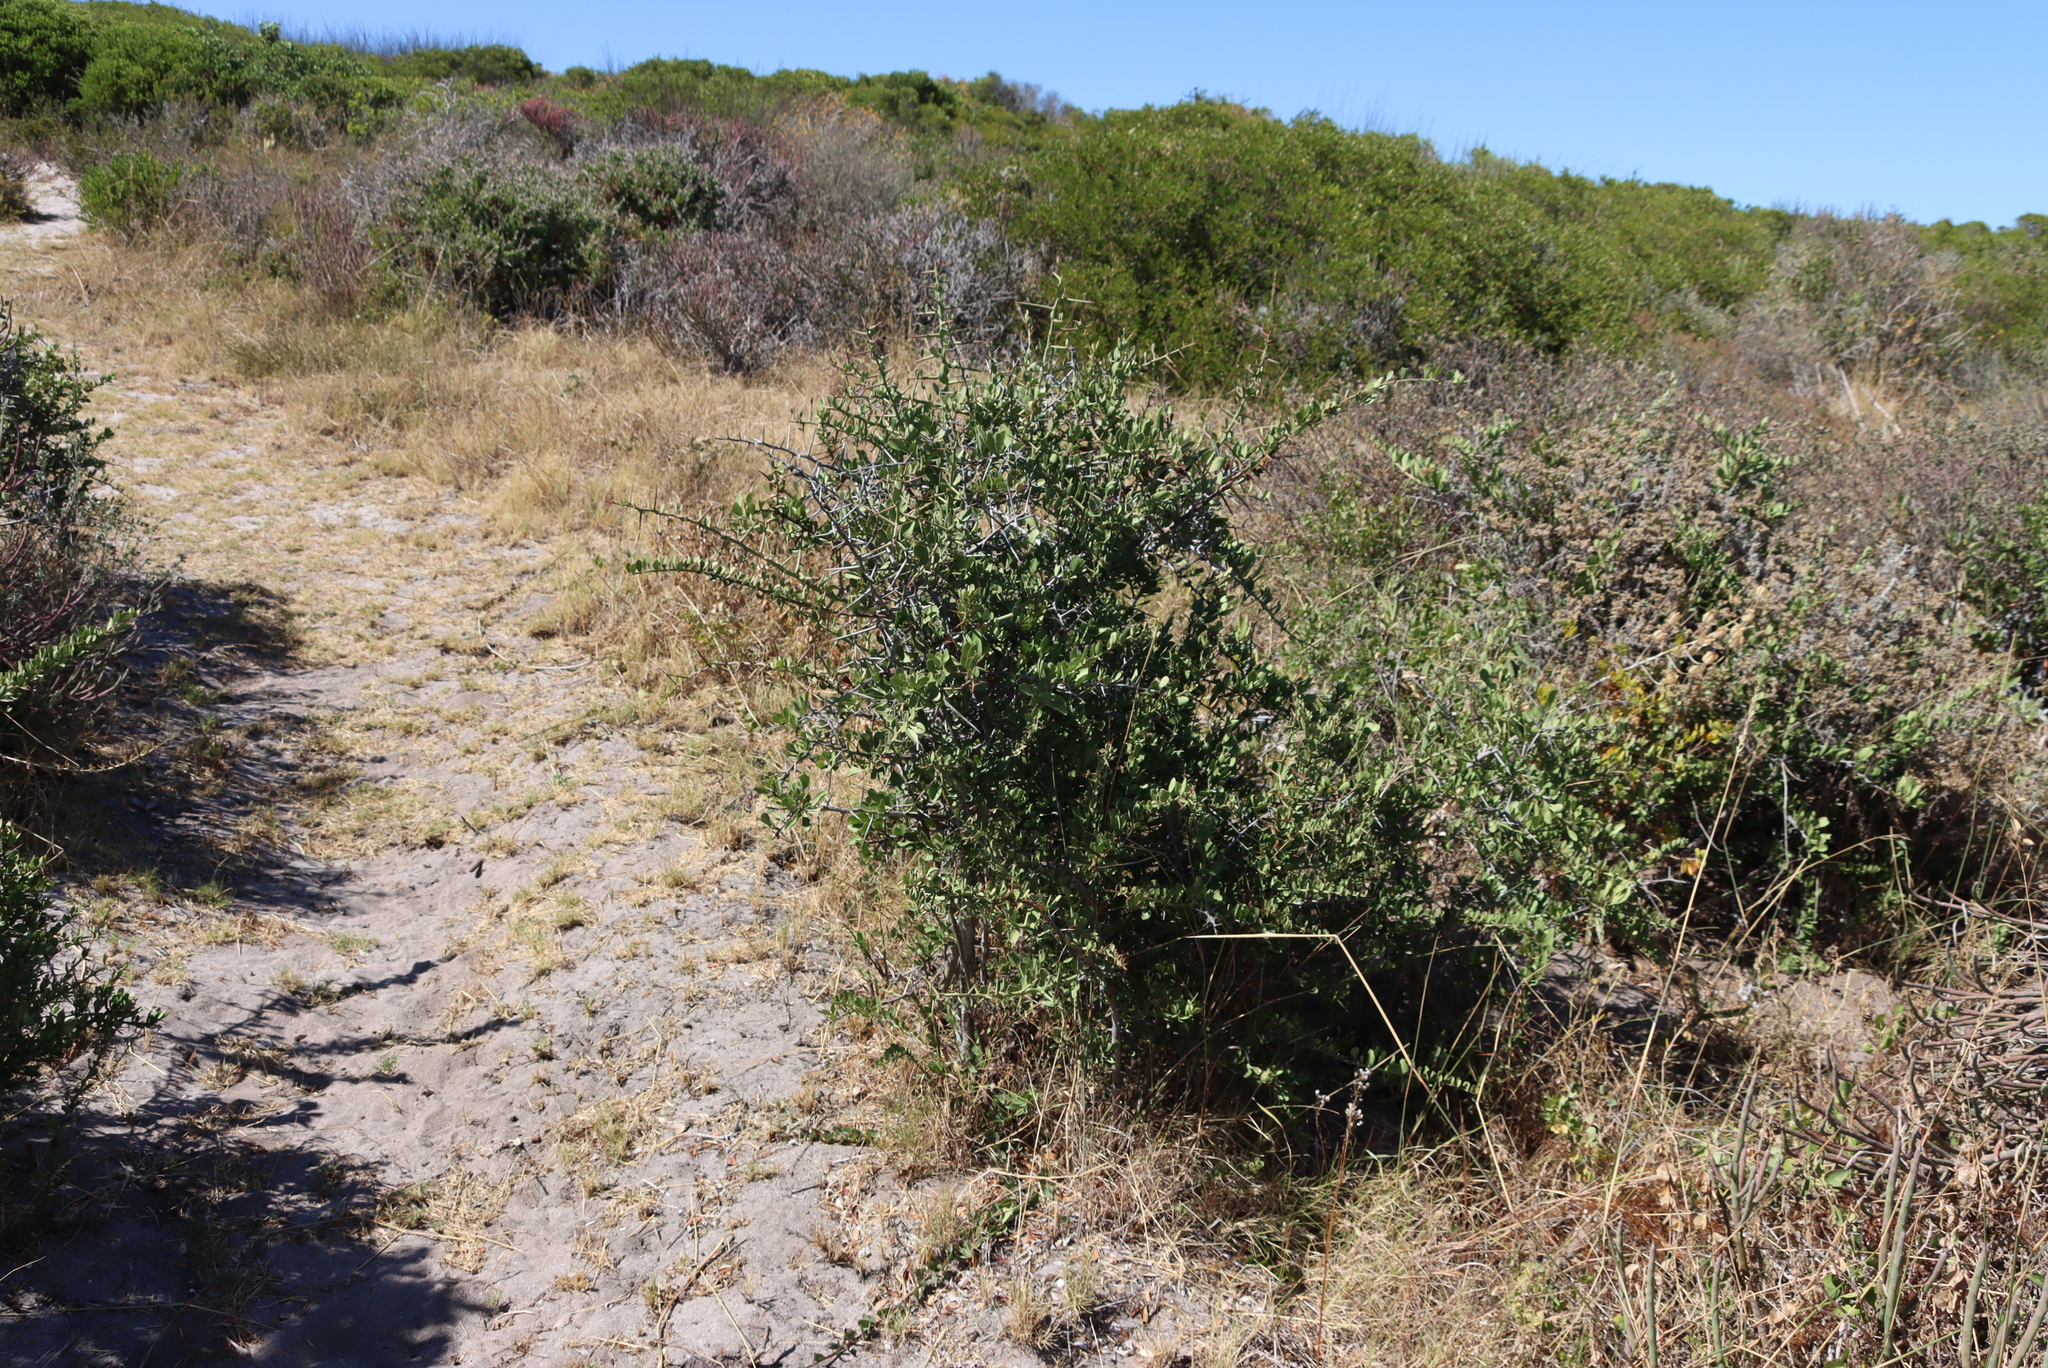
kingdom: Plantae
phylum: Tracheophyta
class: Magnoliopsida
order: Celastrales
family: Celastraceae
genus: Gymnosporia
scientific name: Gymnosporia buxifolia
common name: Common spike-thorn
